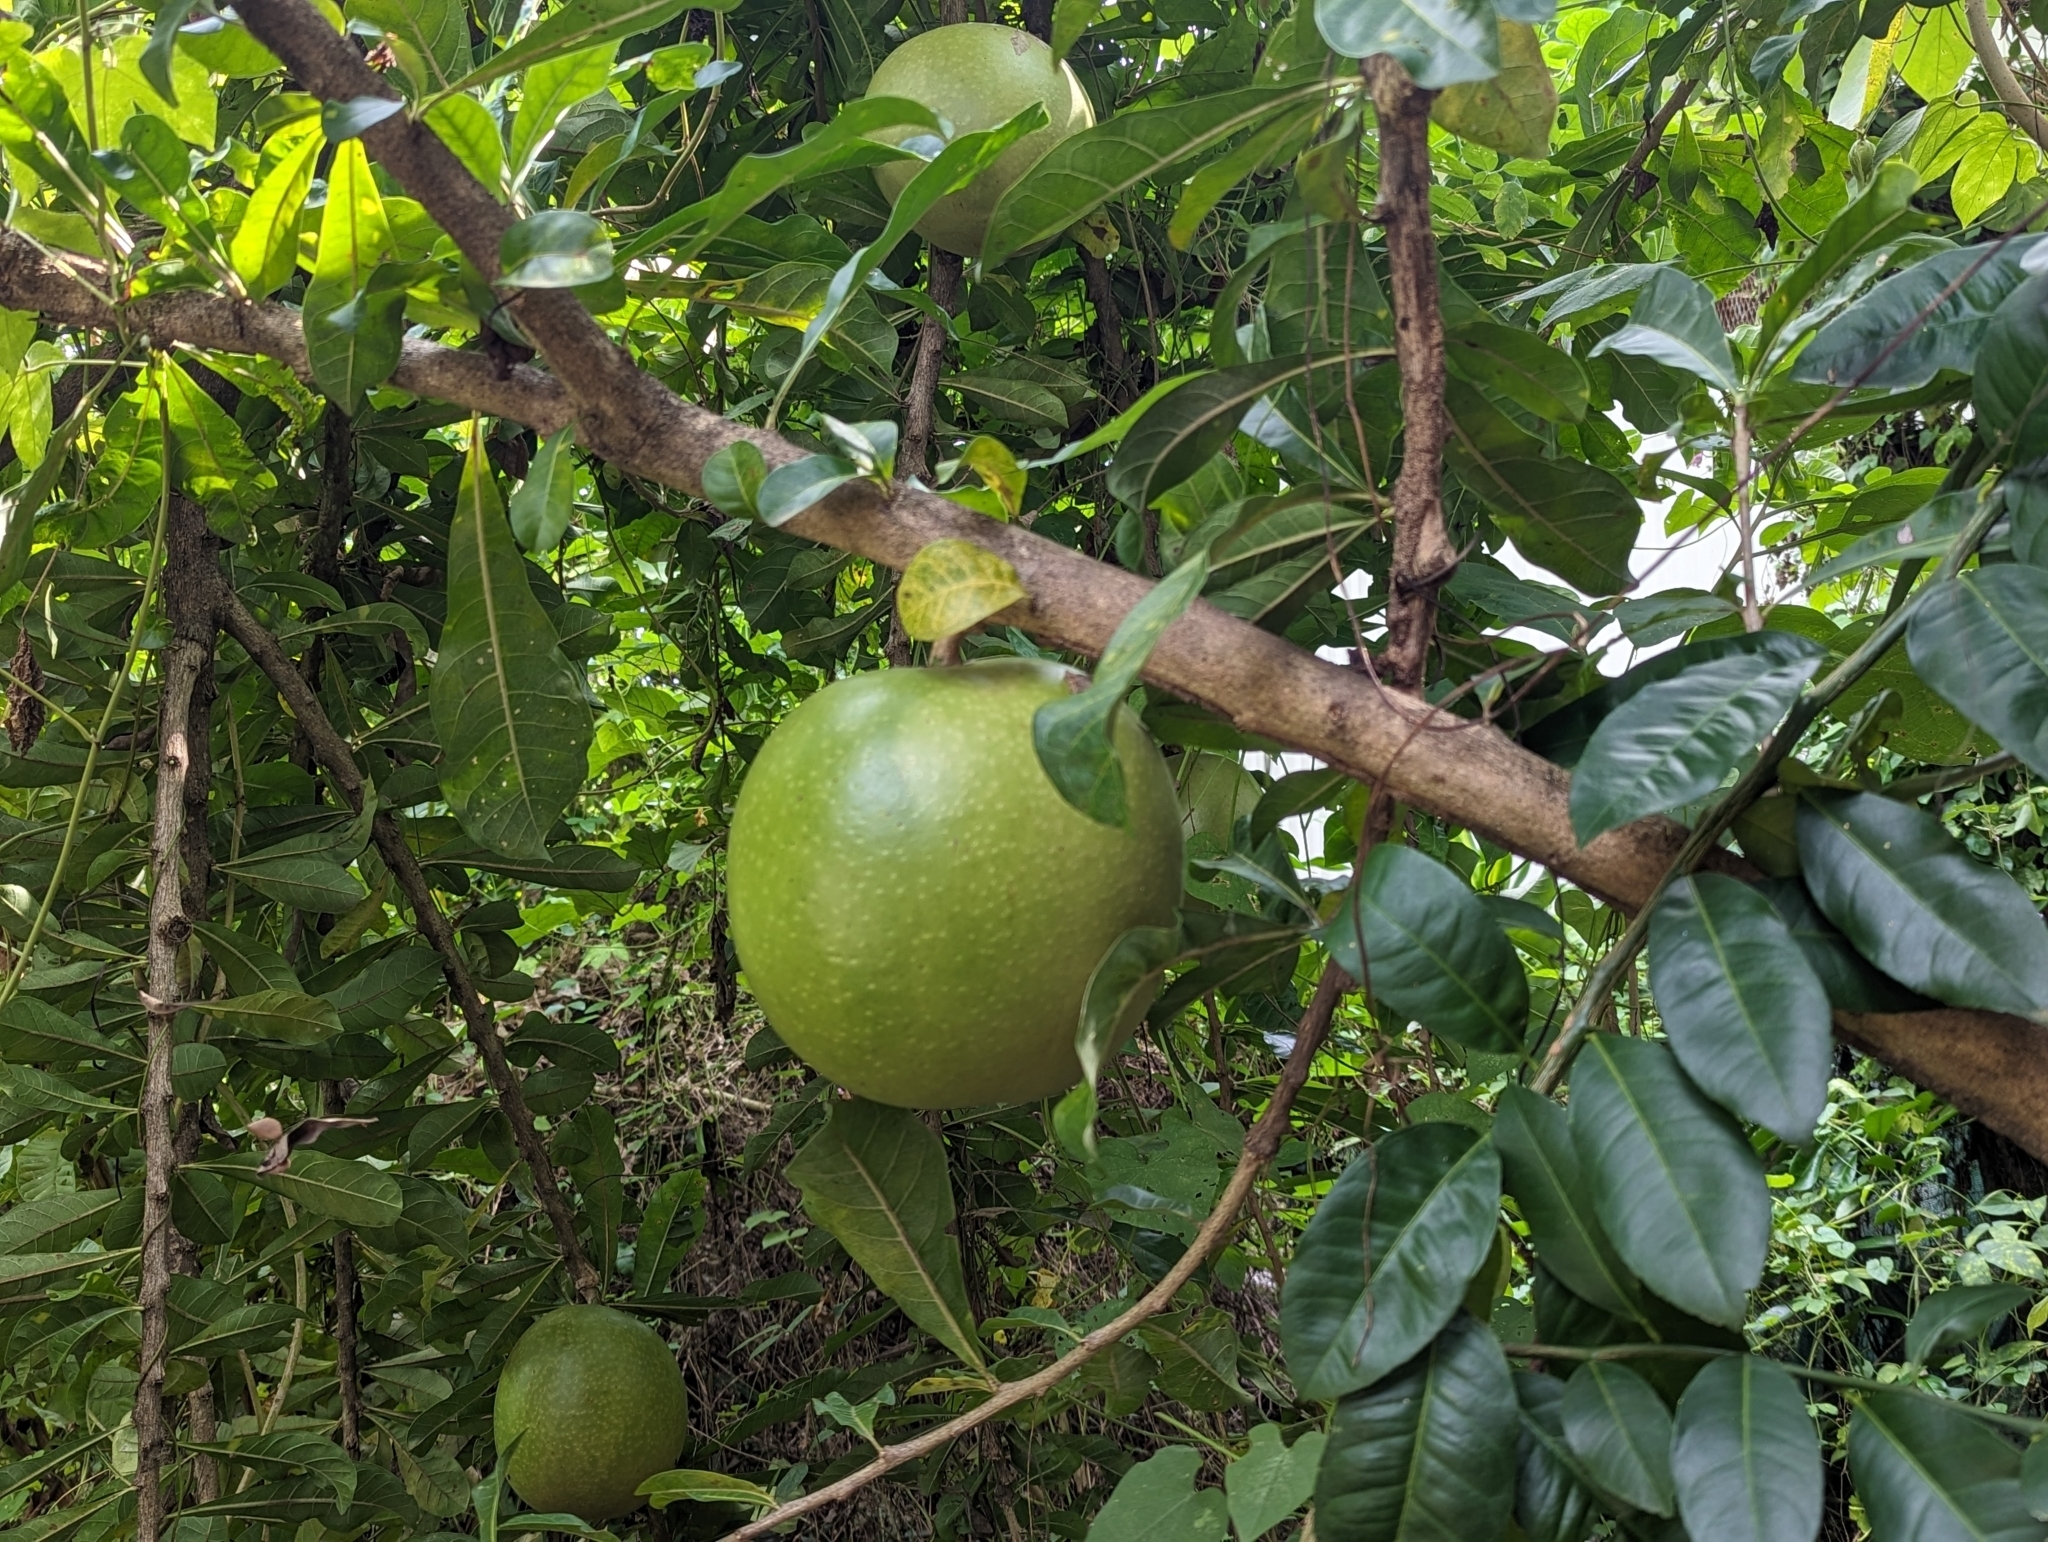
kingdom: Plantae
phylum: Tracheophyta
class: Magnoliopsida
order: Lamiales
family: Bignoniaceae
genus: Crescentia
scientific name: Crescentia cujete
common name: Calabash
